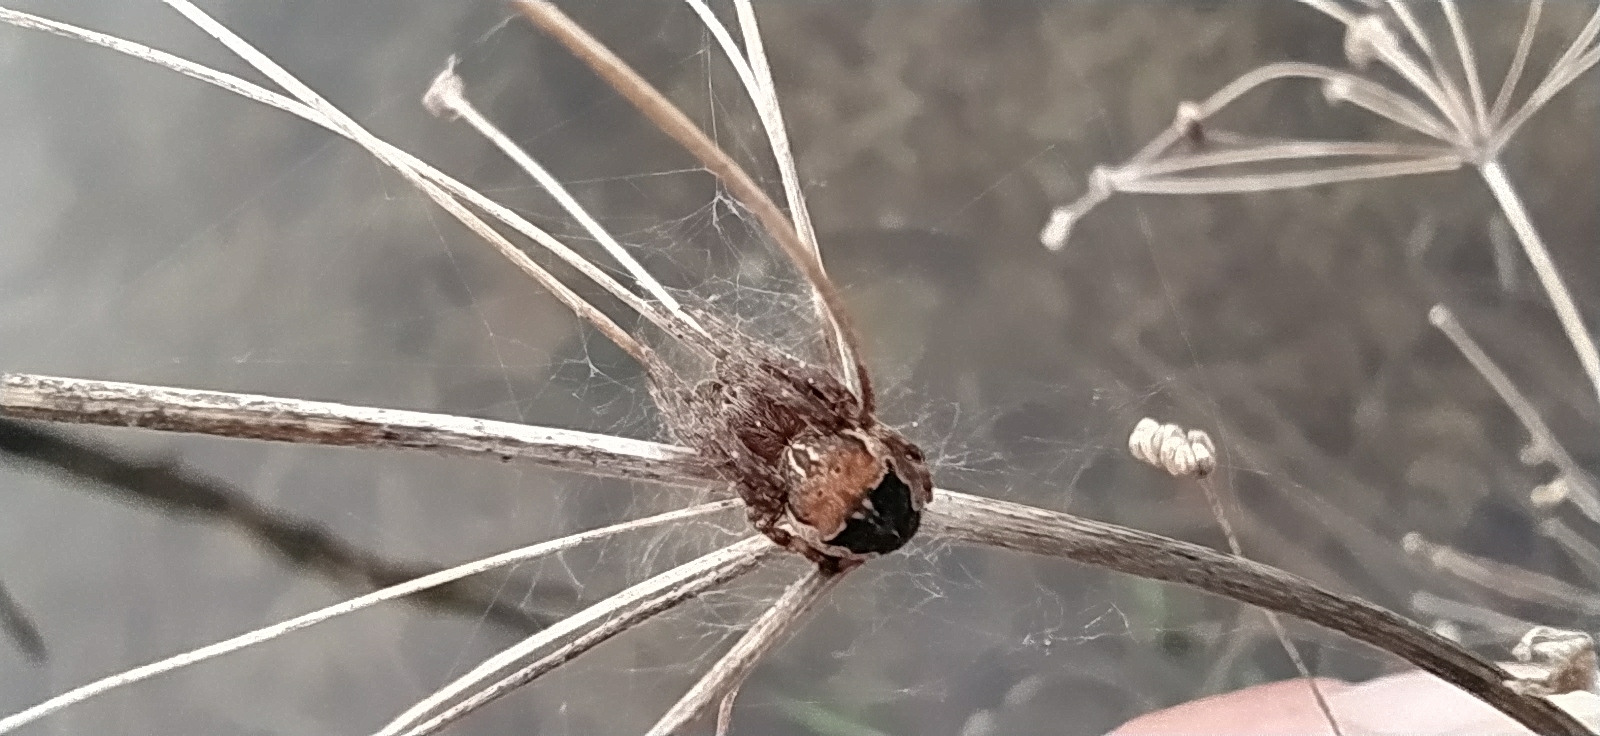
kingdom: Animalia
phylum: Arthropoda
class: Arachnida
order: Araneae
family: Araneidae
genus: Larinioides
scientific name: Larinioides patagiatus
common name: Ornamental orbweaver
